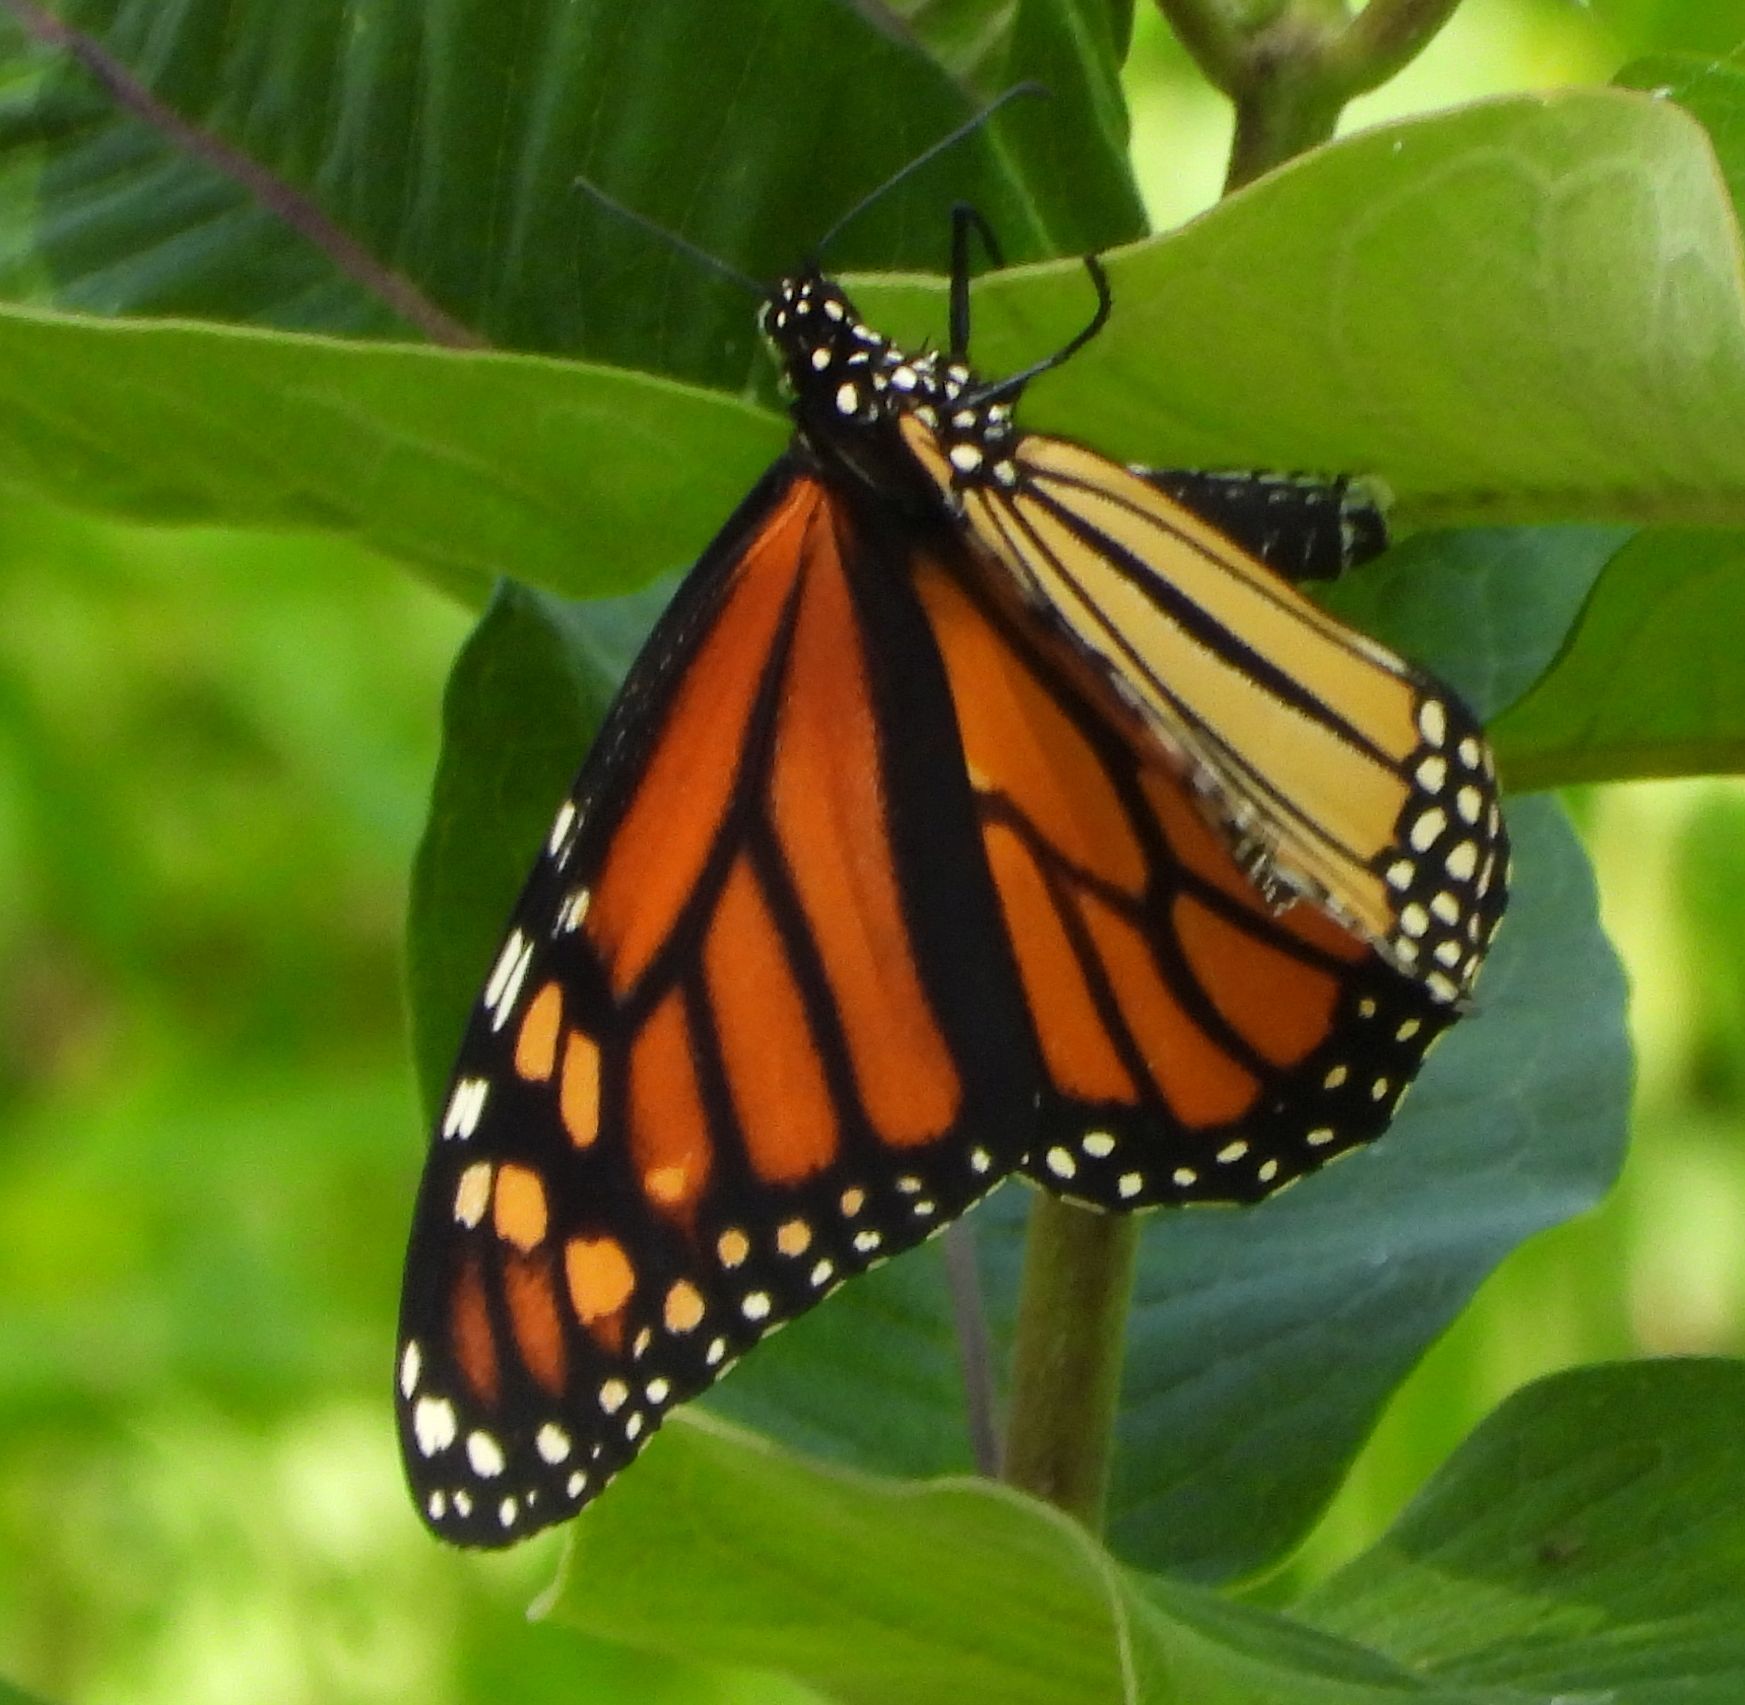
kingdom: Animalia
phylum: Arthropoda
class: Insecta
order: Lepidoptera
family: Nymphalidae
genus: Danaus
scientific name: Danaus plexippus
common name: Monarch
